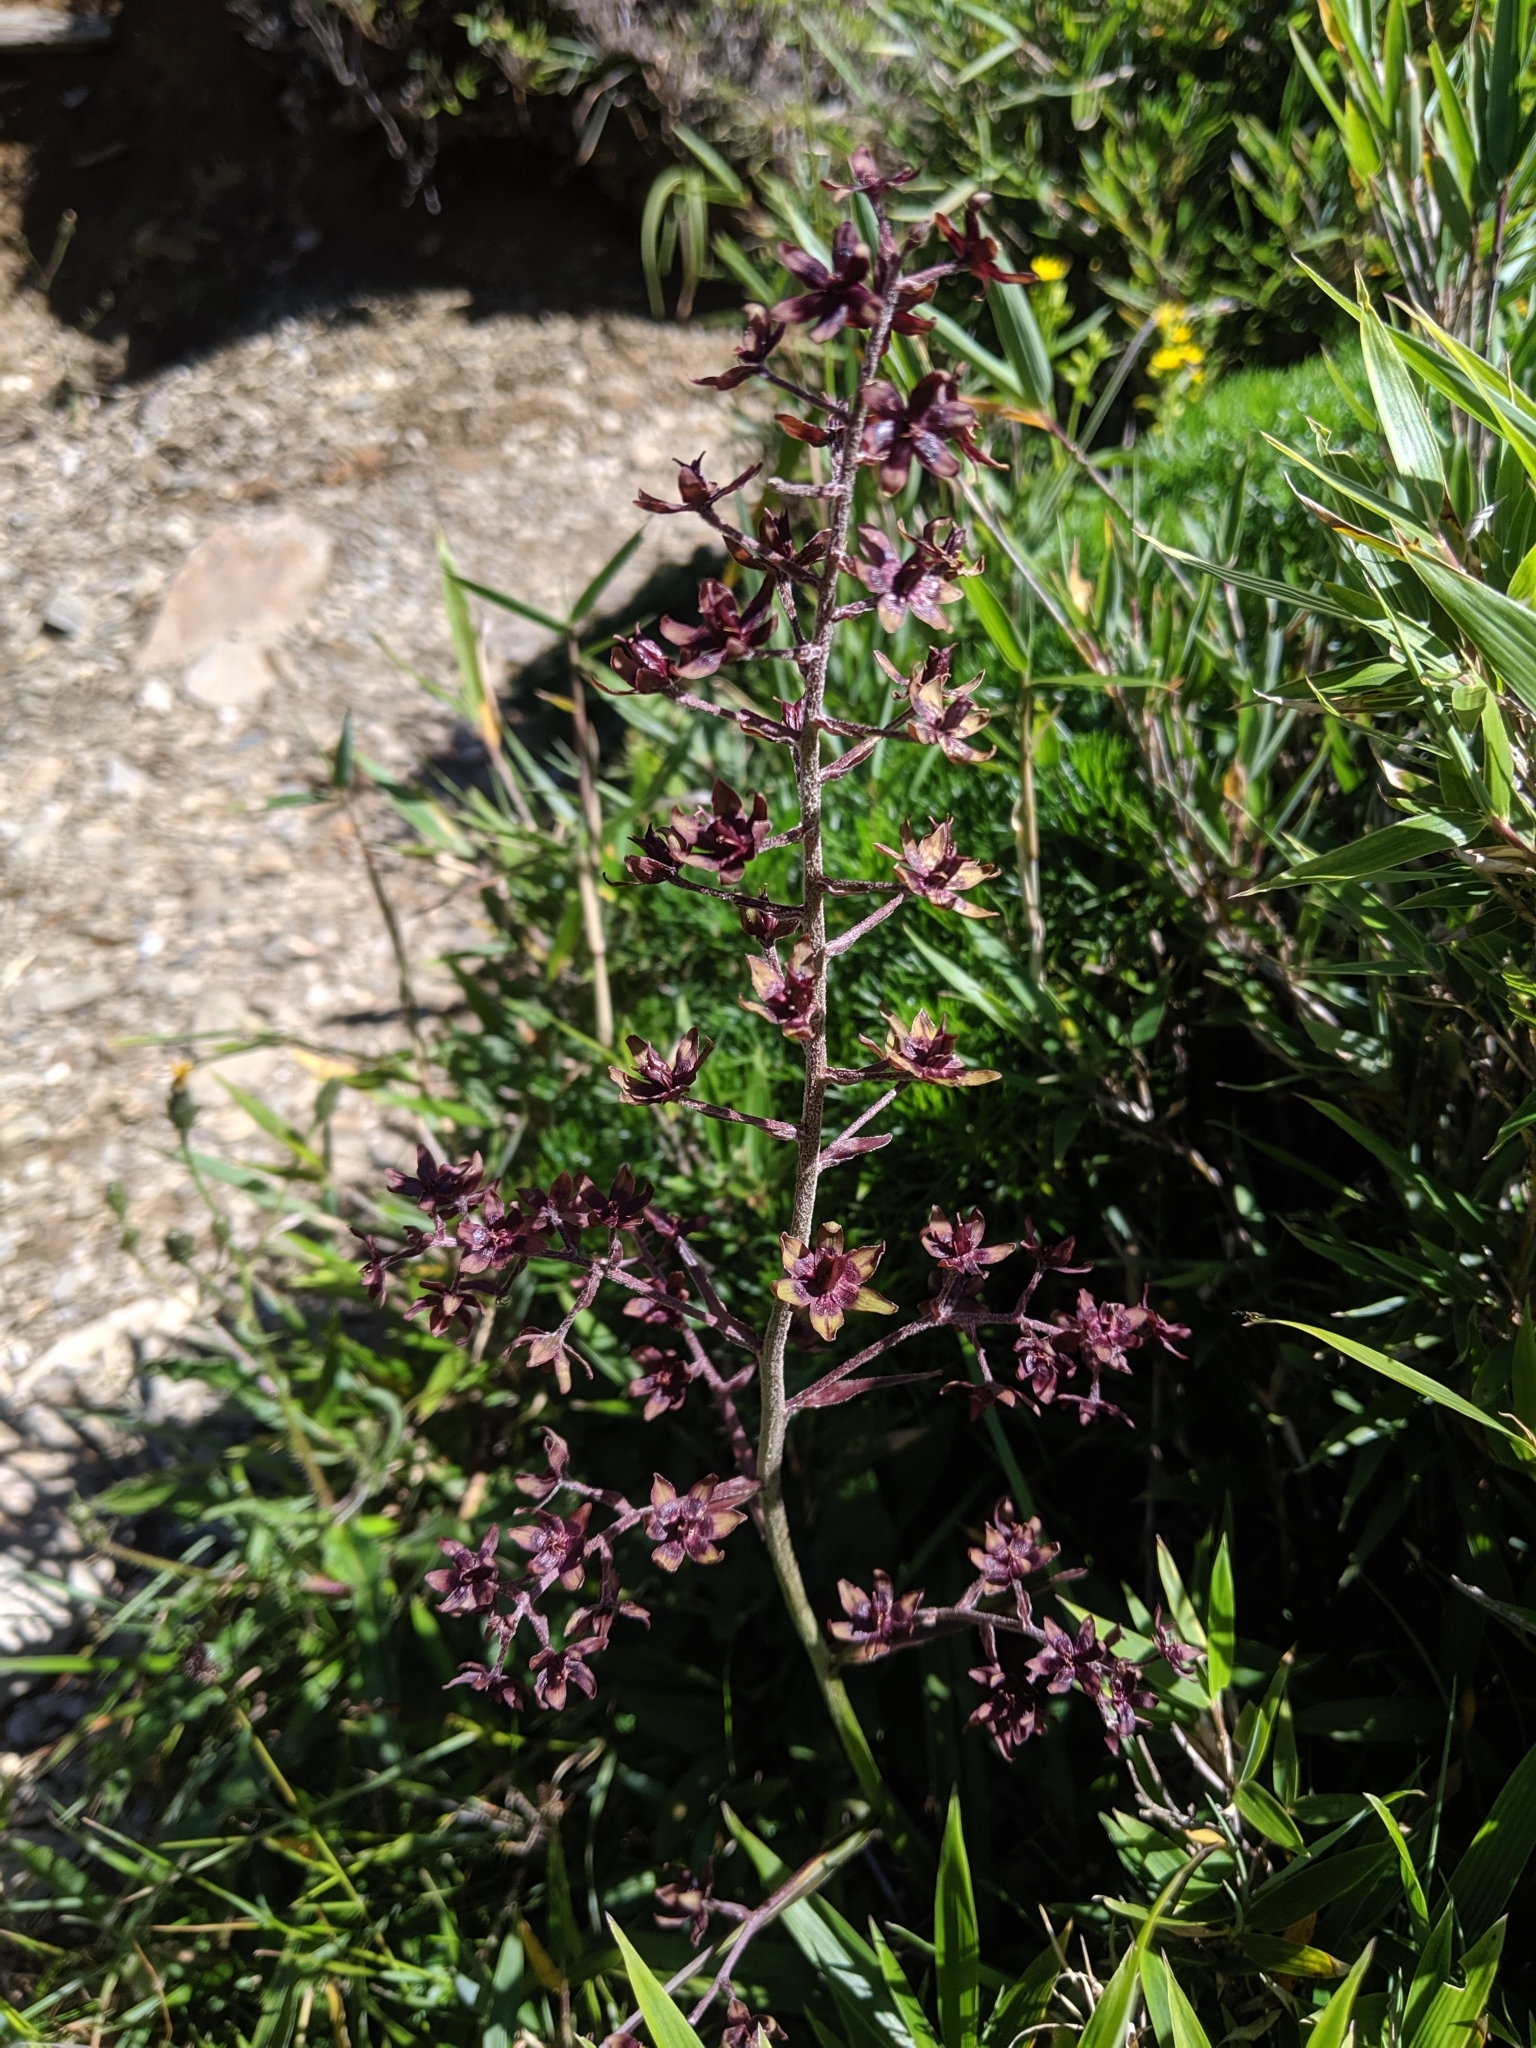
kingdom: Plantae
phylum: Tracheophyta
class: Liliopsida
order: Liliales
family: Melanthiaceae
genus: Veratrum
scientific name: Veratrum formosanum
